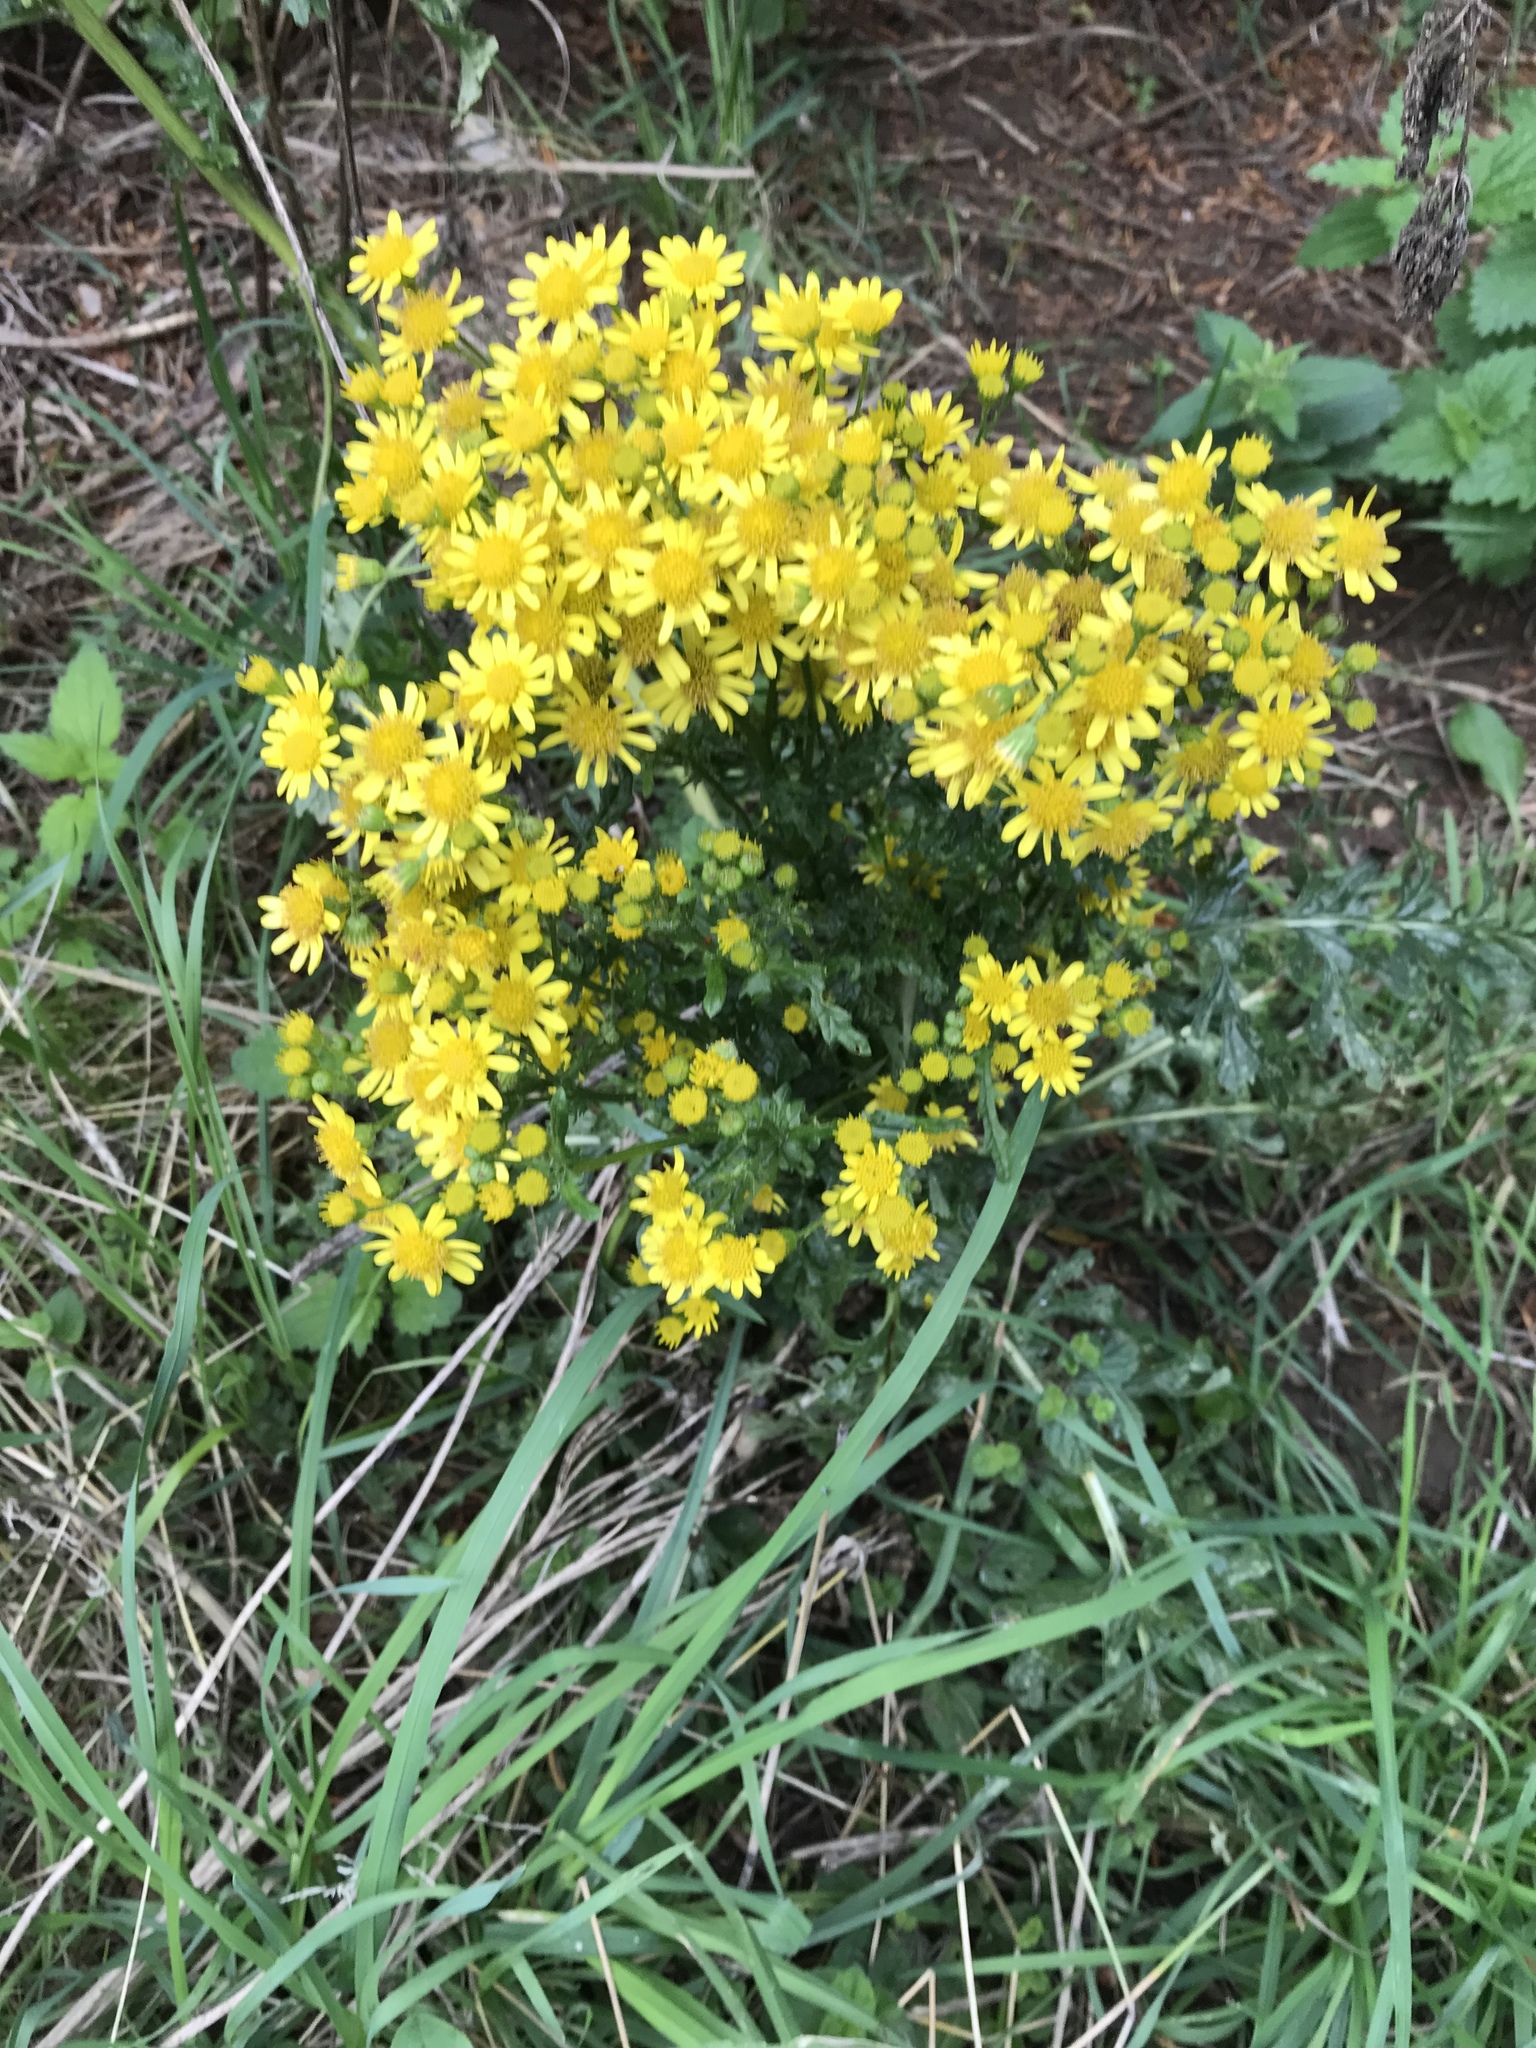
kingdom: Plantae
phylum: Tracheophyta
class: Magnoliopsida
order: Asterales
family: Asteraceae
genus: Jacobaea
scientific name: Jacobaea vulgaris
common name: Stinking willie
